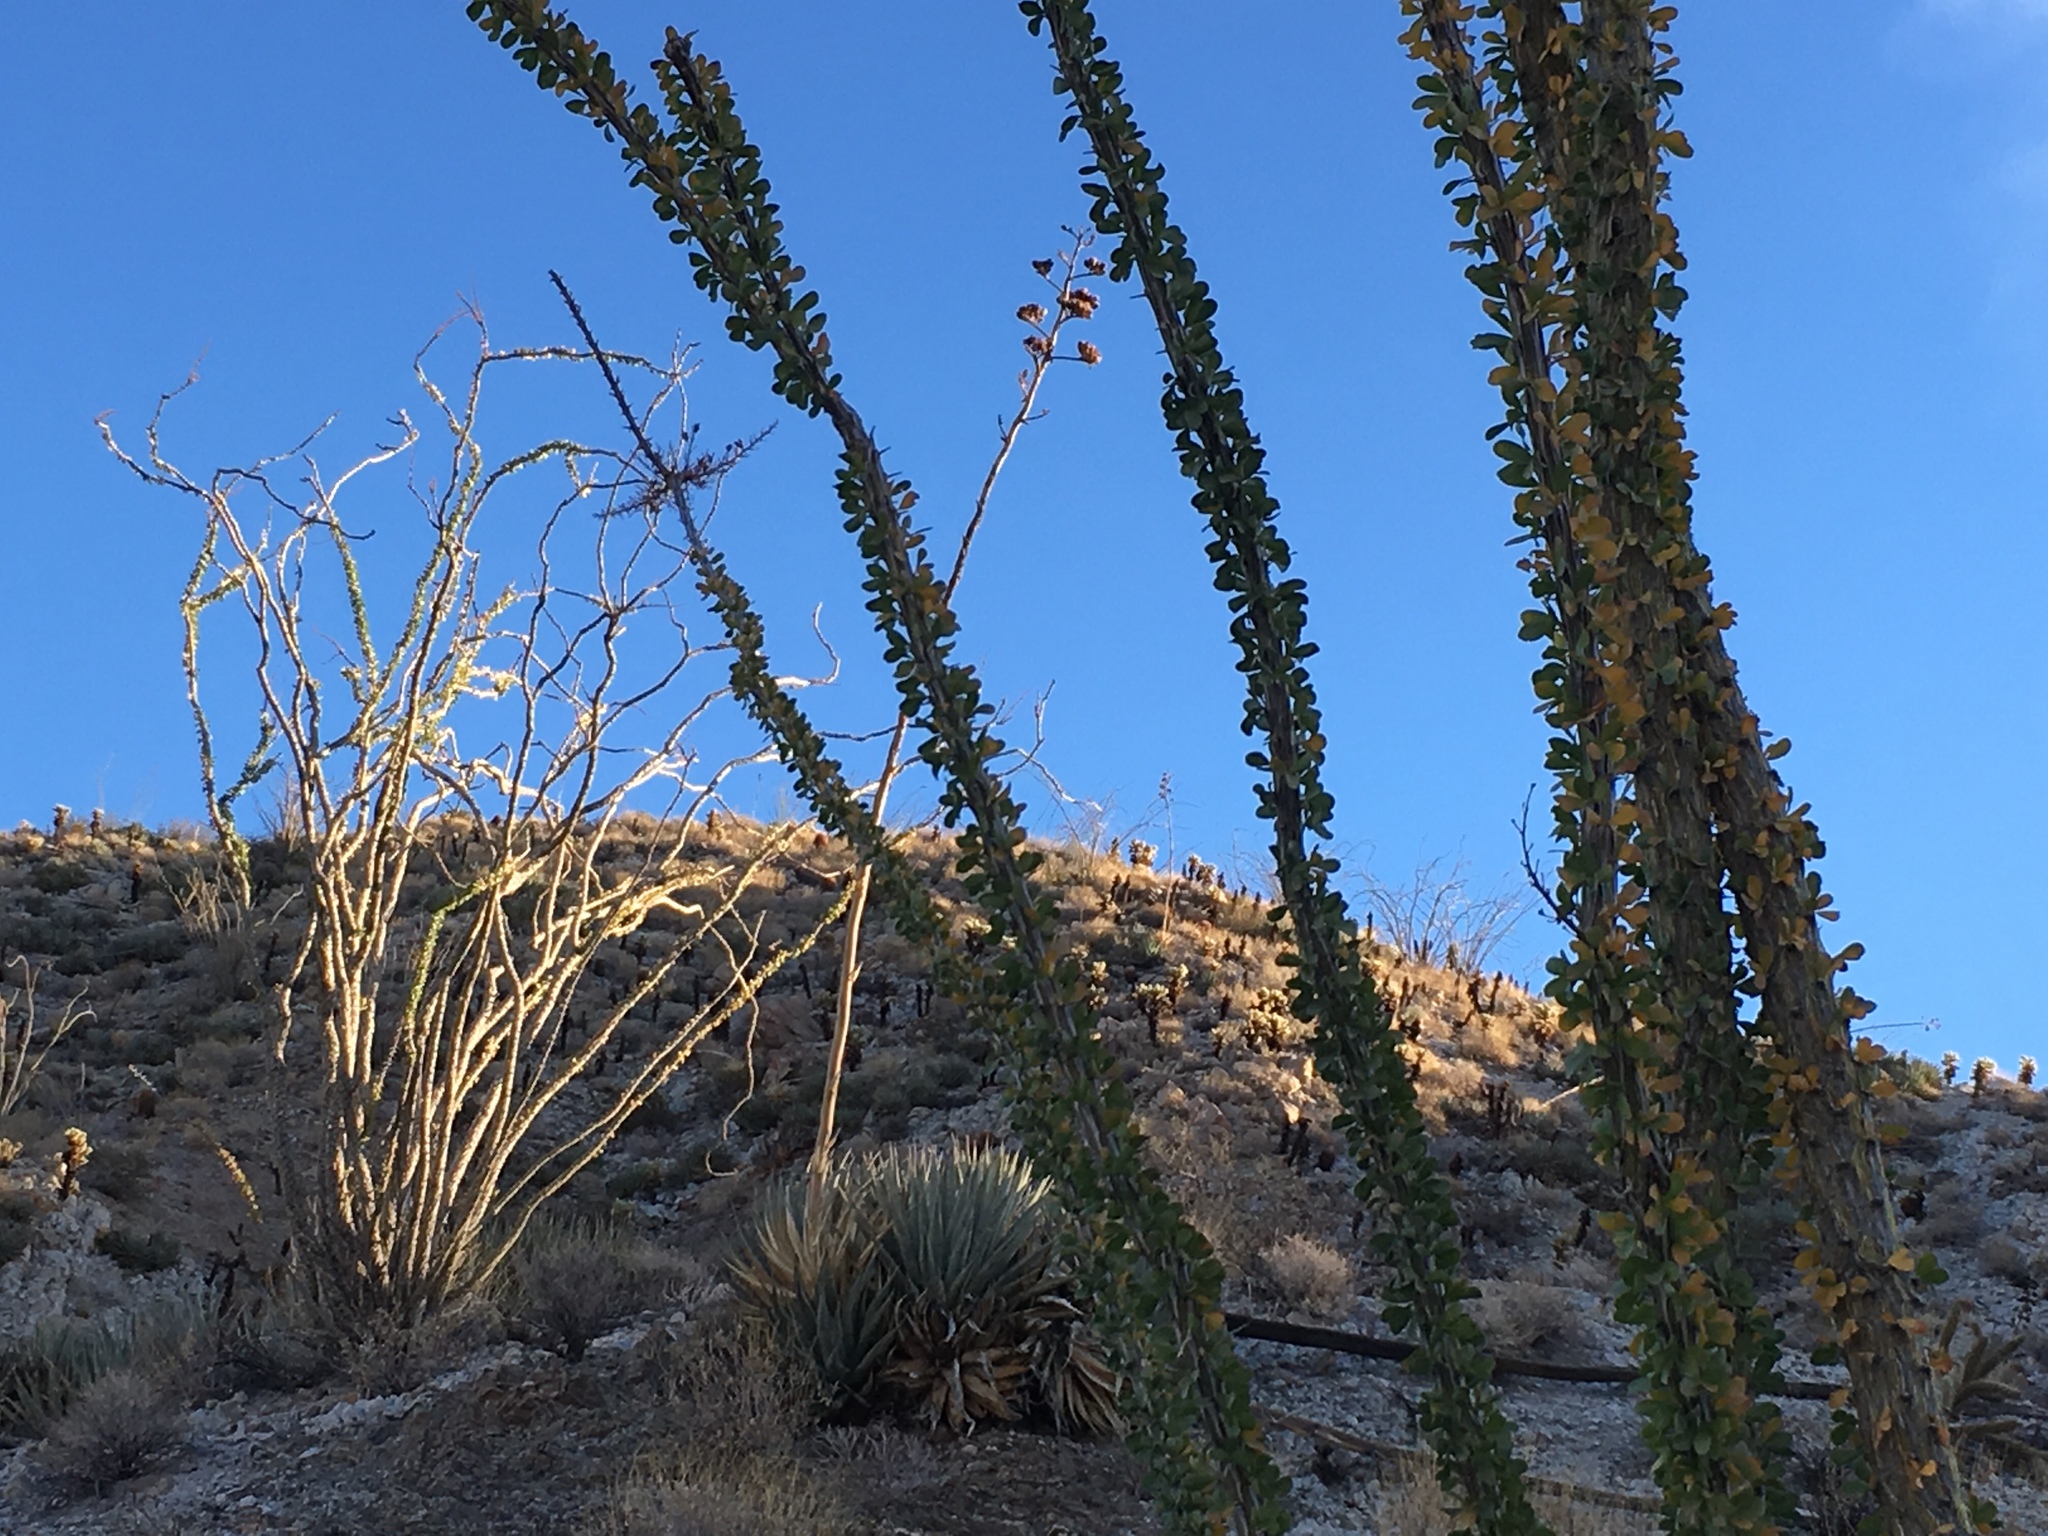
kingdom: Plantae
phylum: Tracheophyta
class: Magnoliopsida
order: Ericales
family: Fouquieriaceae
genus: Fouquieria
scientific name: Fouquieria splendens
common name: Vine-cactus
